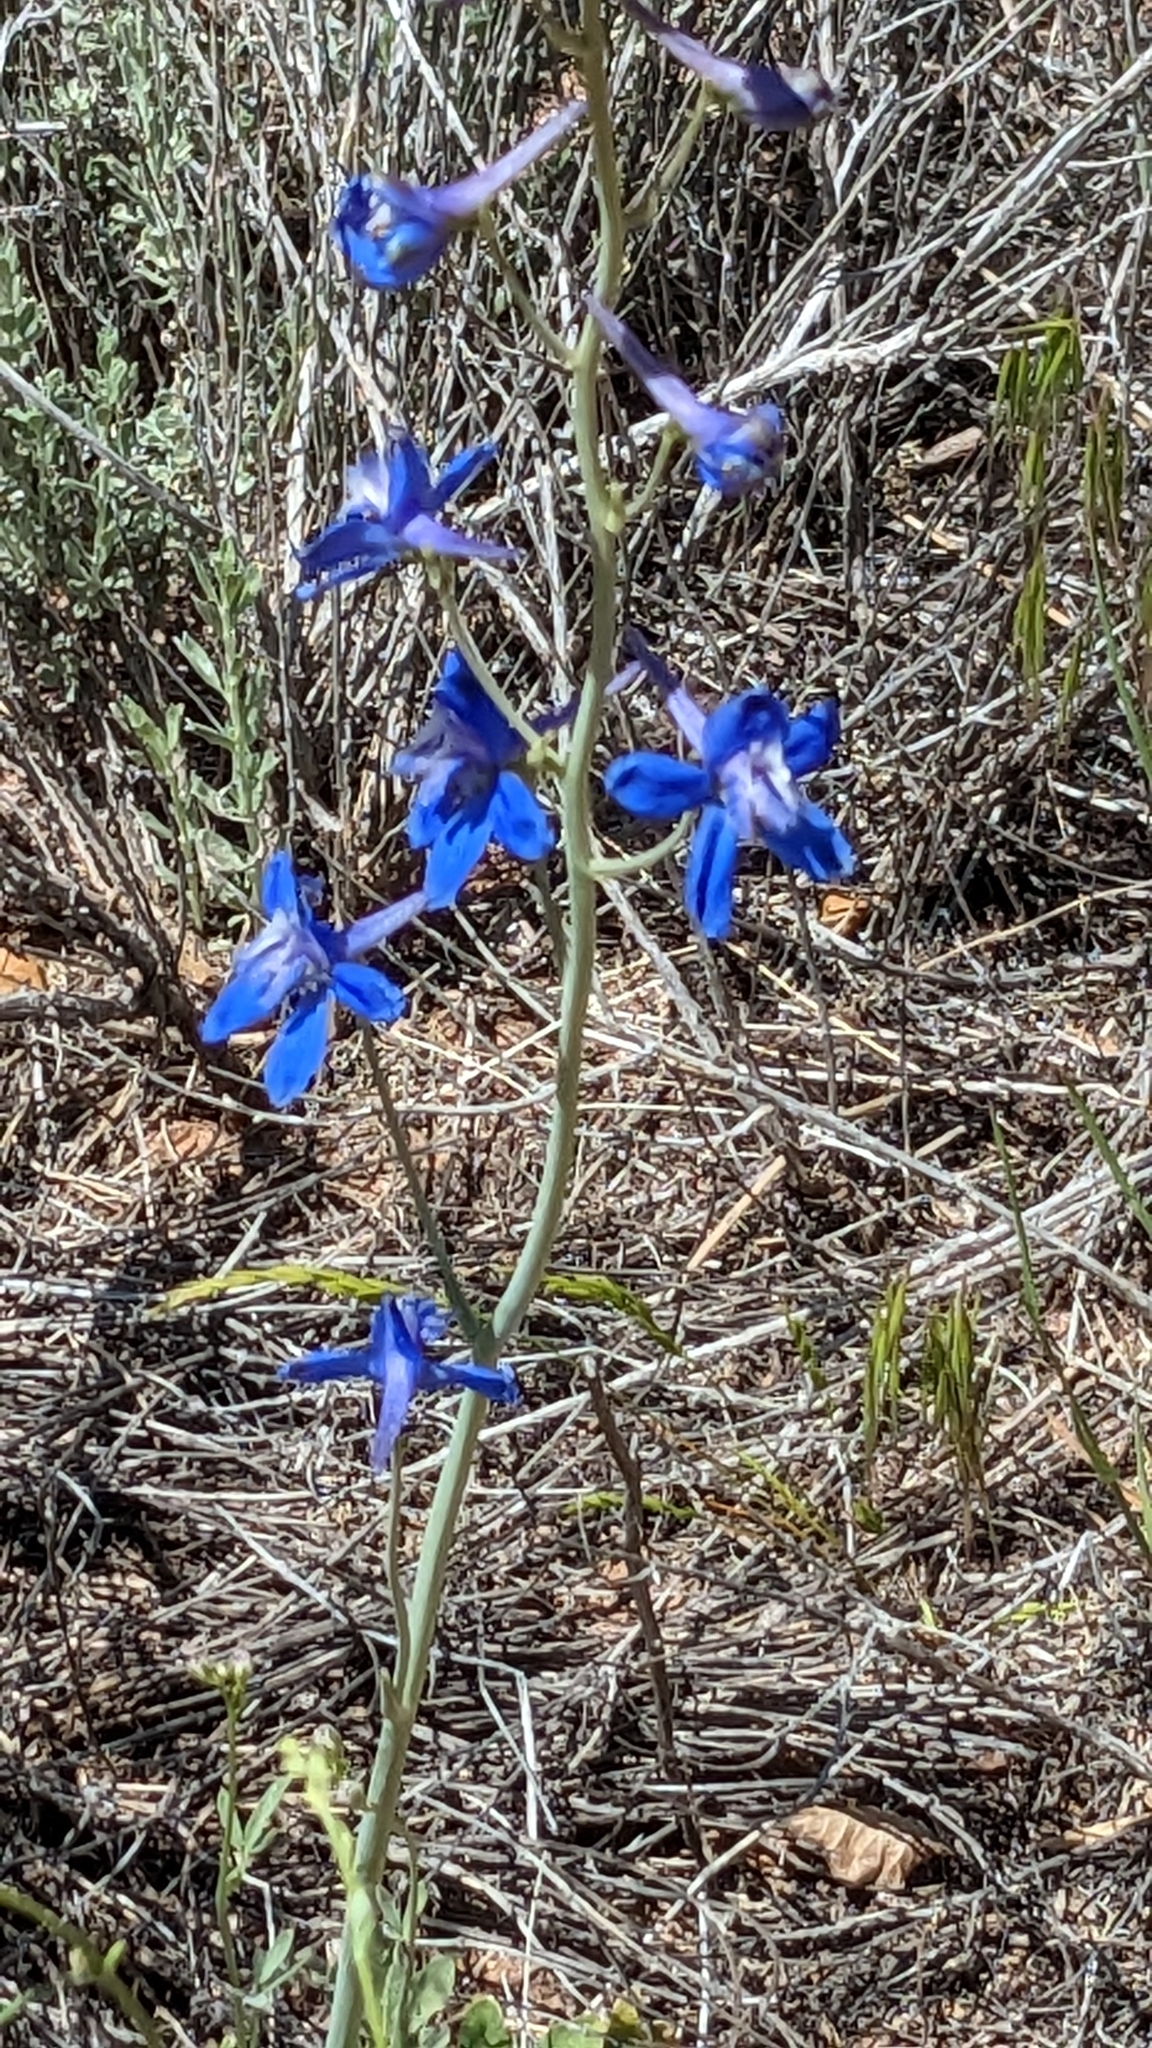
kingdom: Plantae
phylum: Tracheophyta
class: Magnoliopsida
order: Ranunculales
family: Ranunculaceae
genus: Delphinium
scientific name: Delphinium scaposum
